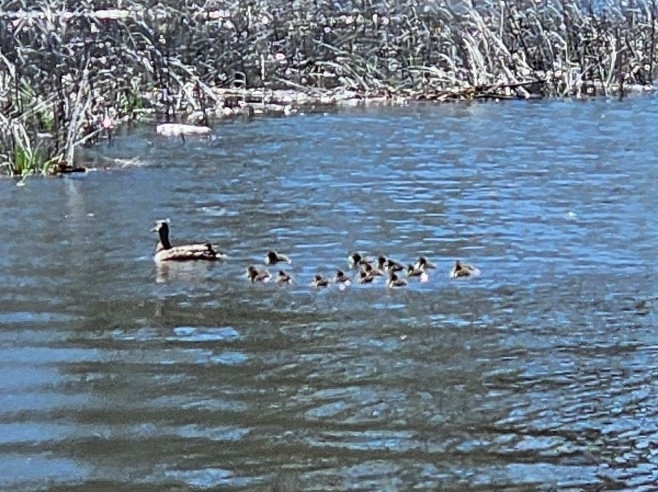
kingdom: Animalia
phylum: Chordata
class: Aves
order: Anseriformes
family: Anatidae
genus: Anas
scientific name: Anas platyrhynchos
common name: Mallard
